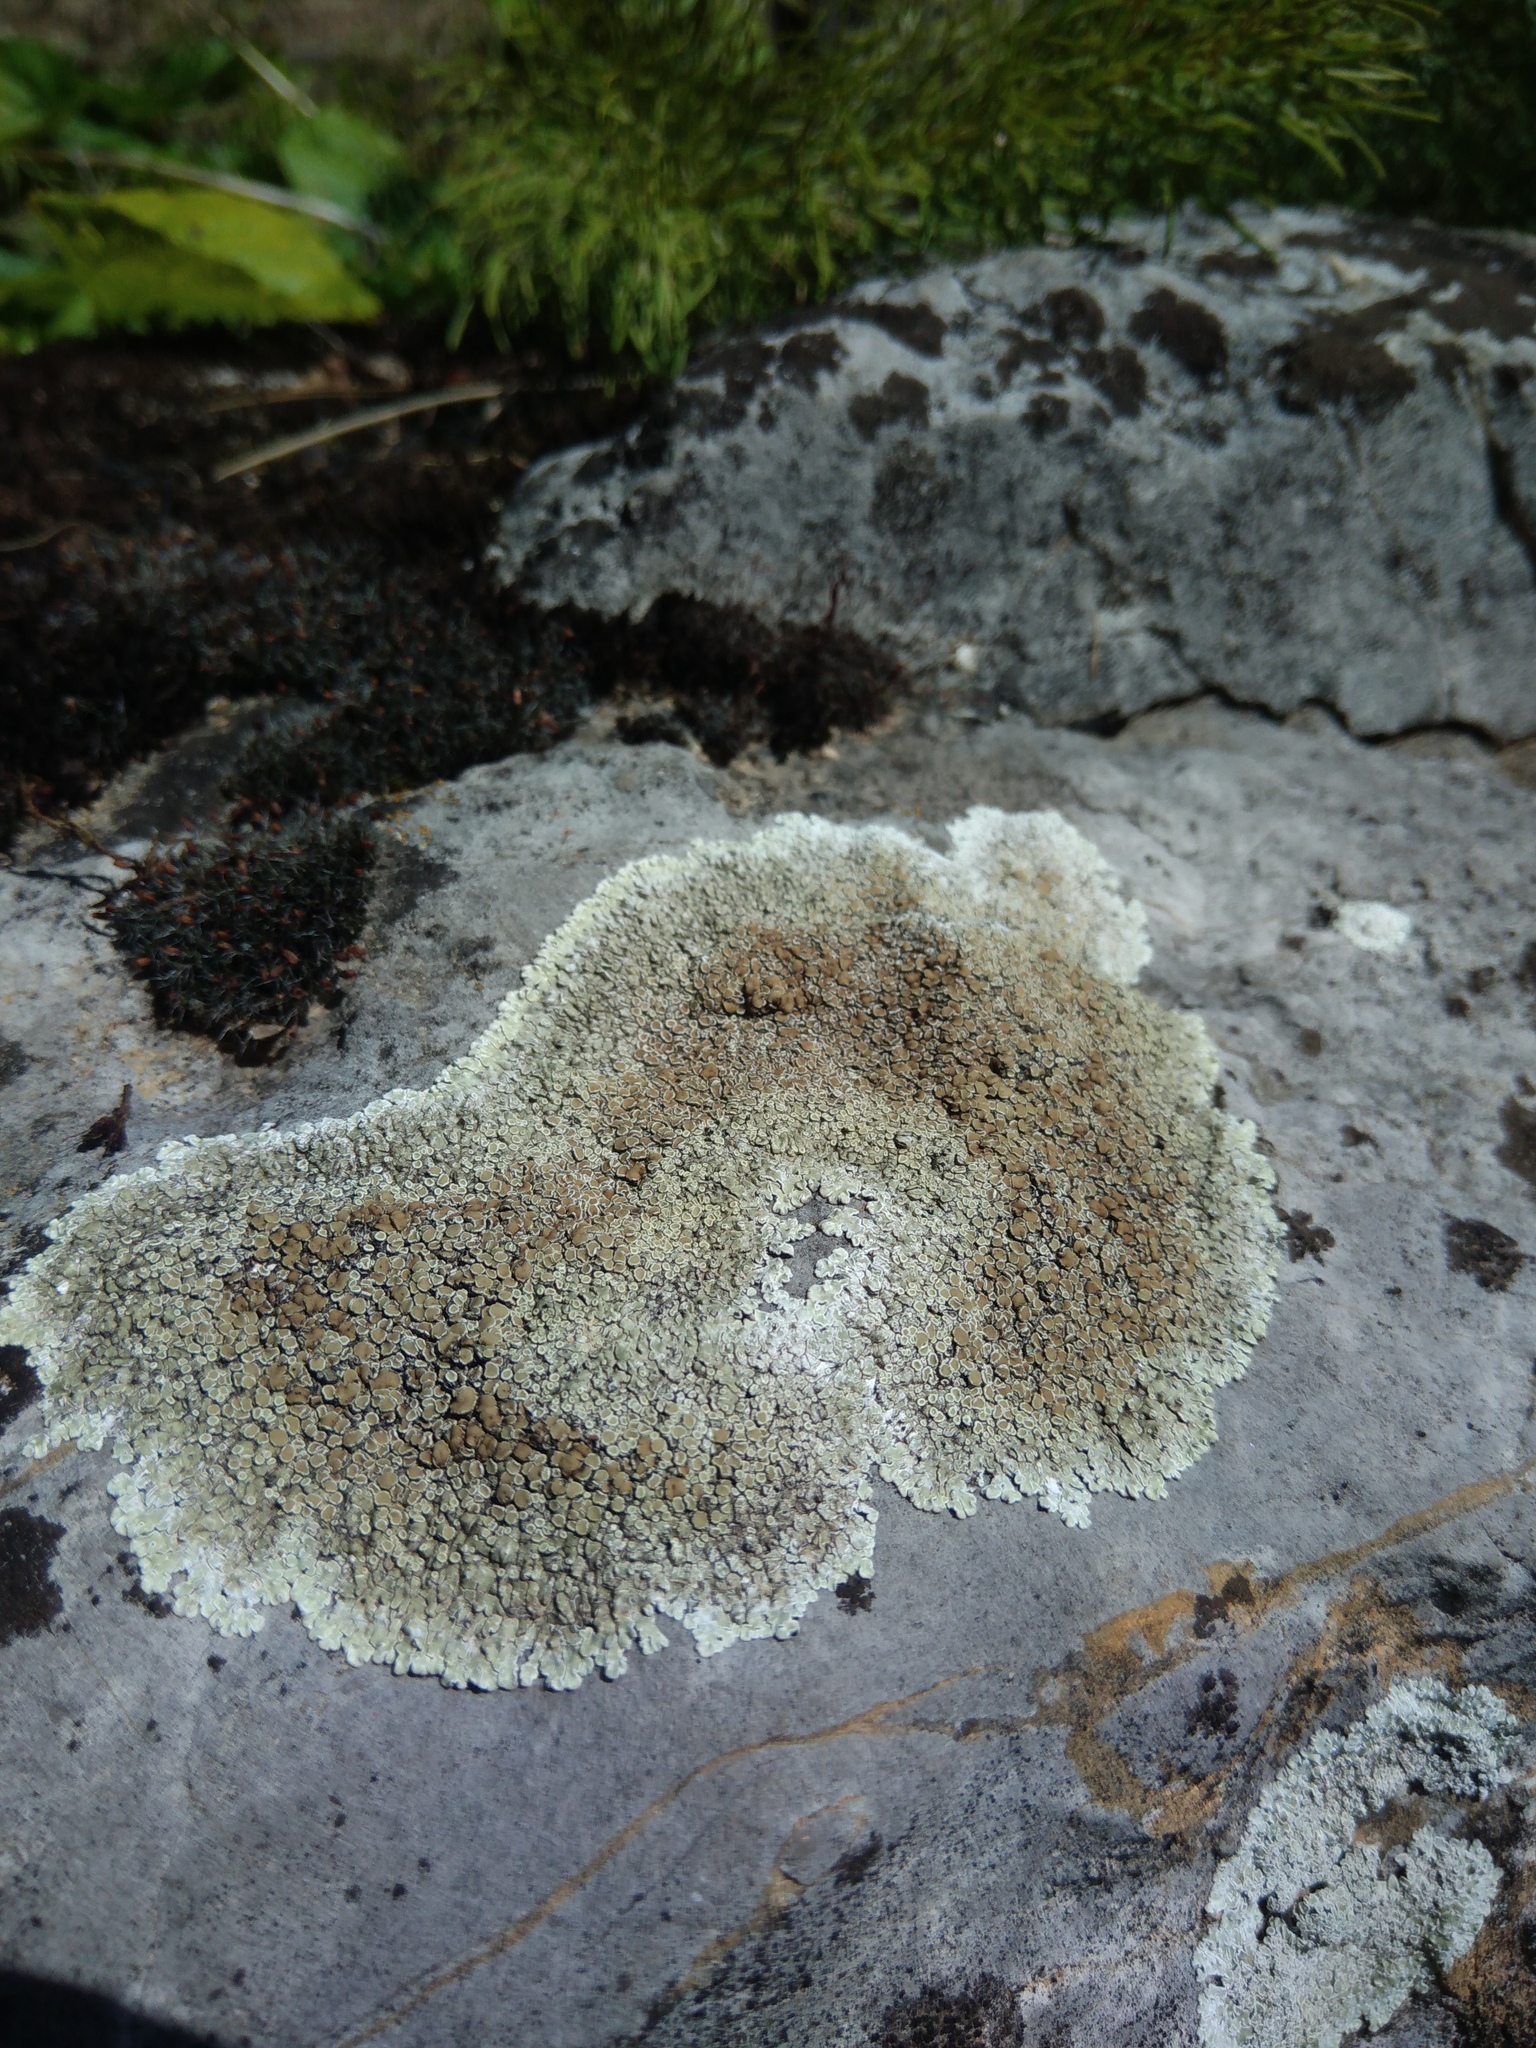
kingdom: Fungi
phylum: Ascomycota
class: Lecanoromycetes
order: Lecanorales
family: Lecanoraceae
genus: Protoparmeliopsis
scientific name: Protoparmeliopsis muralis
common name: Stonewall rim lichen
